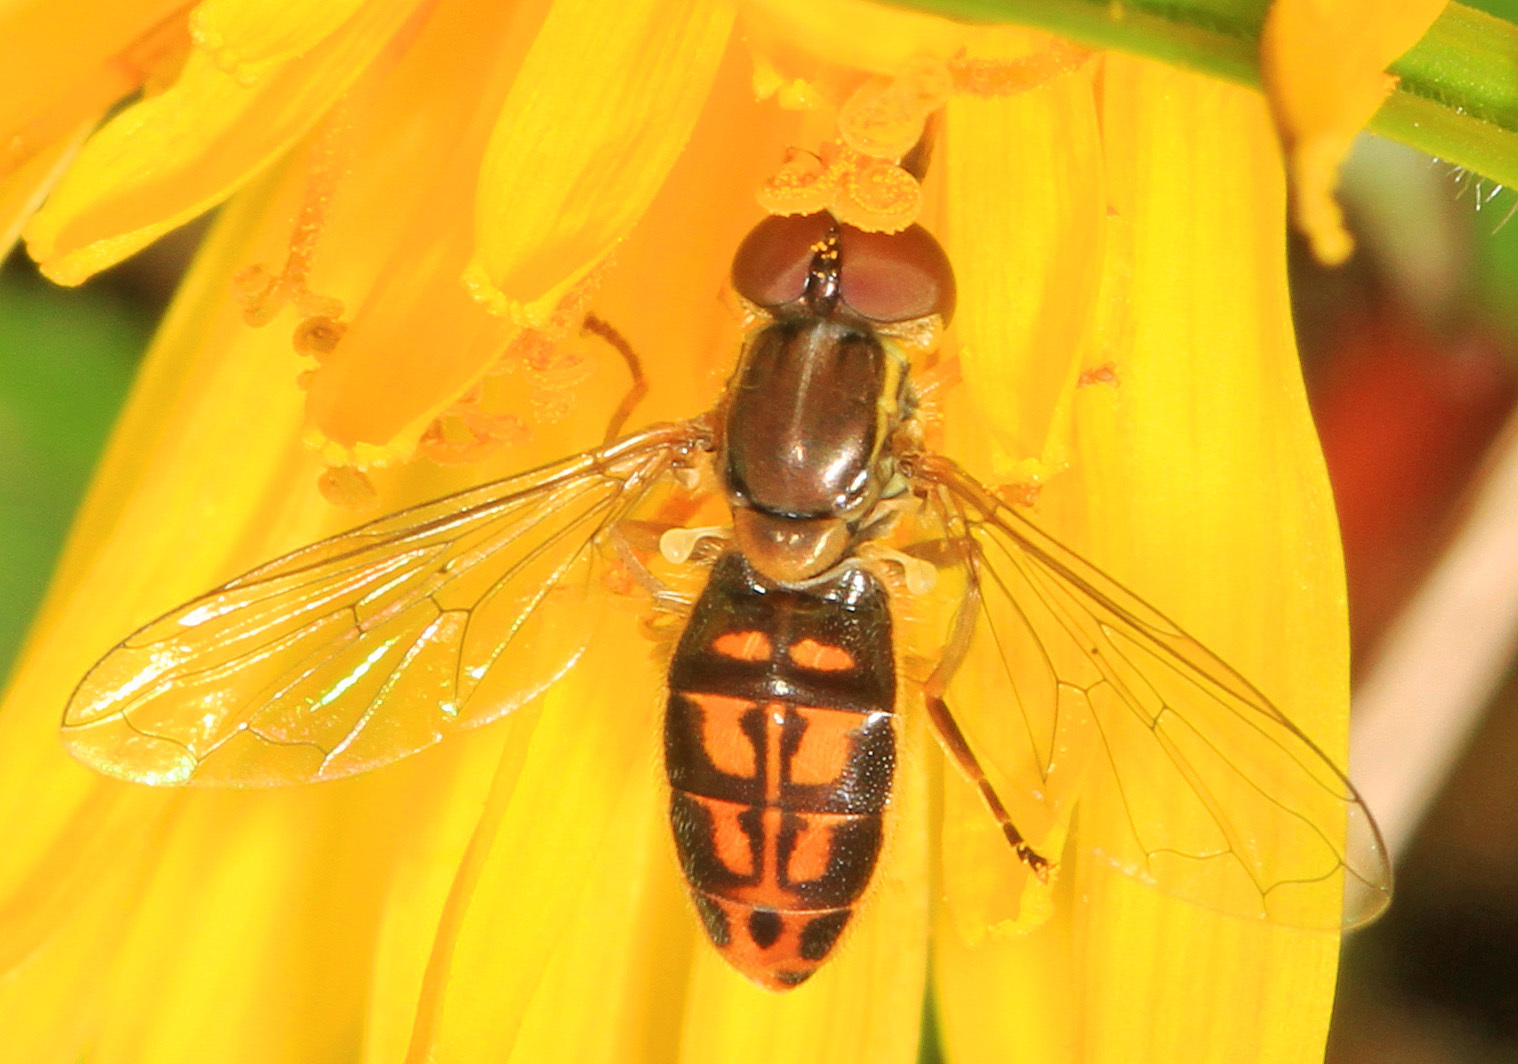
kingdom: Animalia
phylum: Arthropoda
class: Insecta
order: Diptera
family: Syrphidae
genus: Toxomerus
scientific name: Toxomerus marginatus
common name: Syrphid fly
